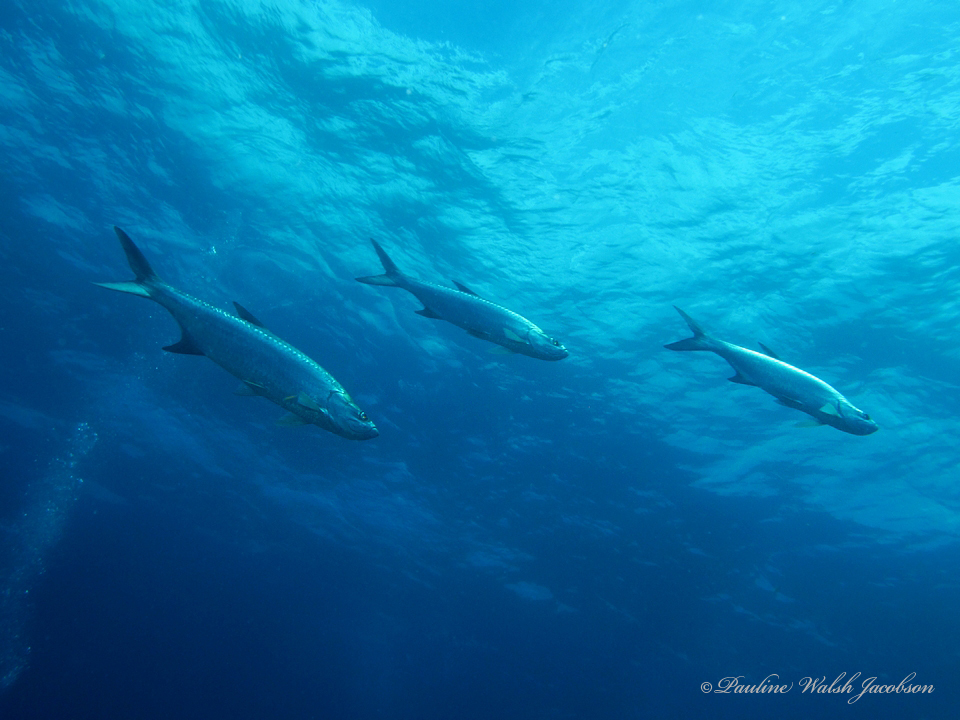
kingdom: Animalia
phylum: Chordata
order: Elopiformes
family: Megalopidae
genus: Megalops
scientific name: Megalops atlanticus
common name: Tarpon
